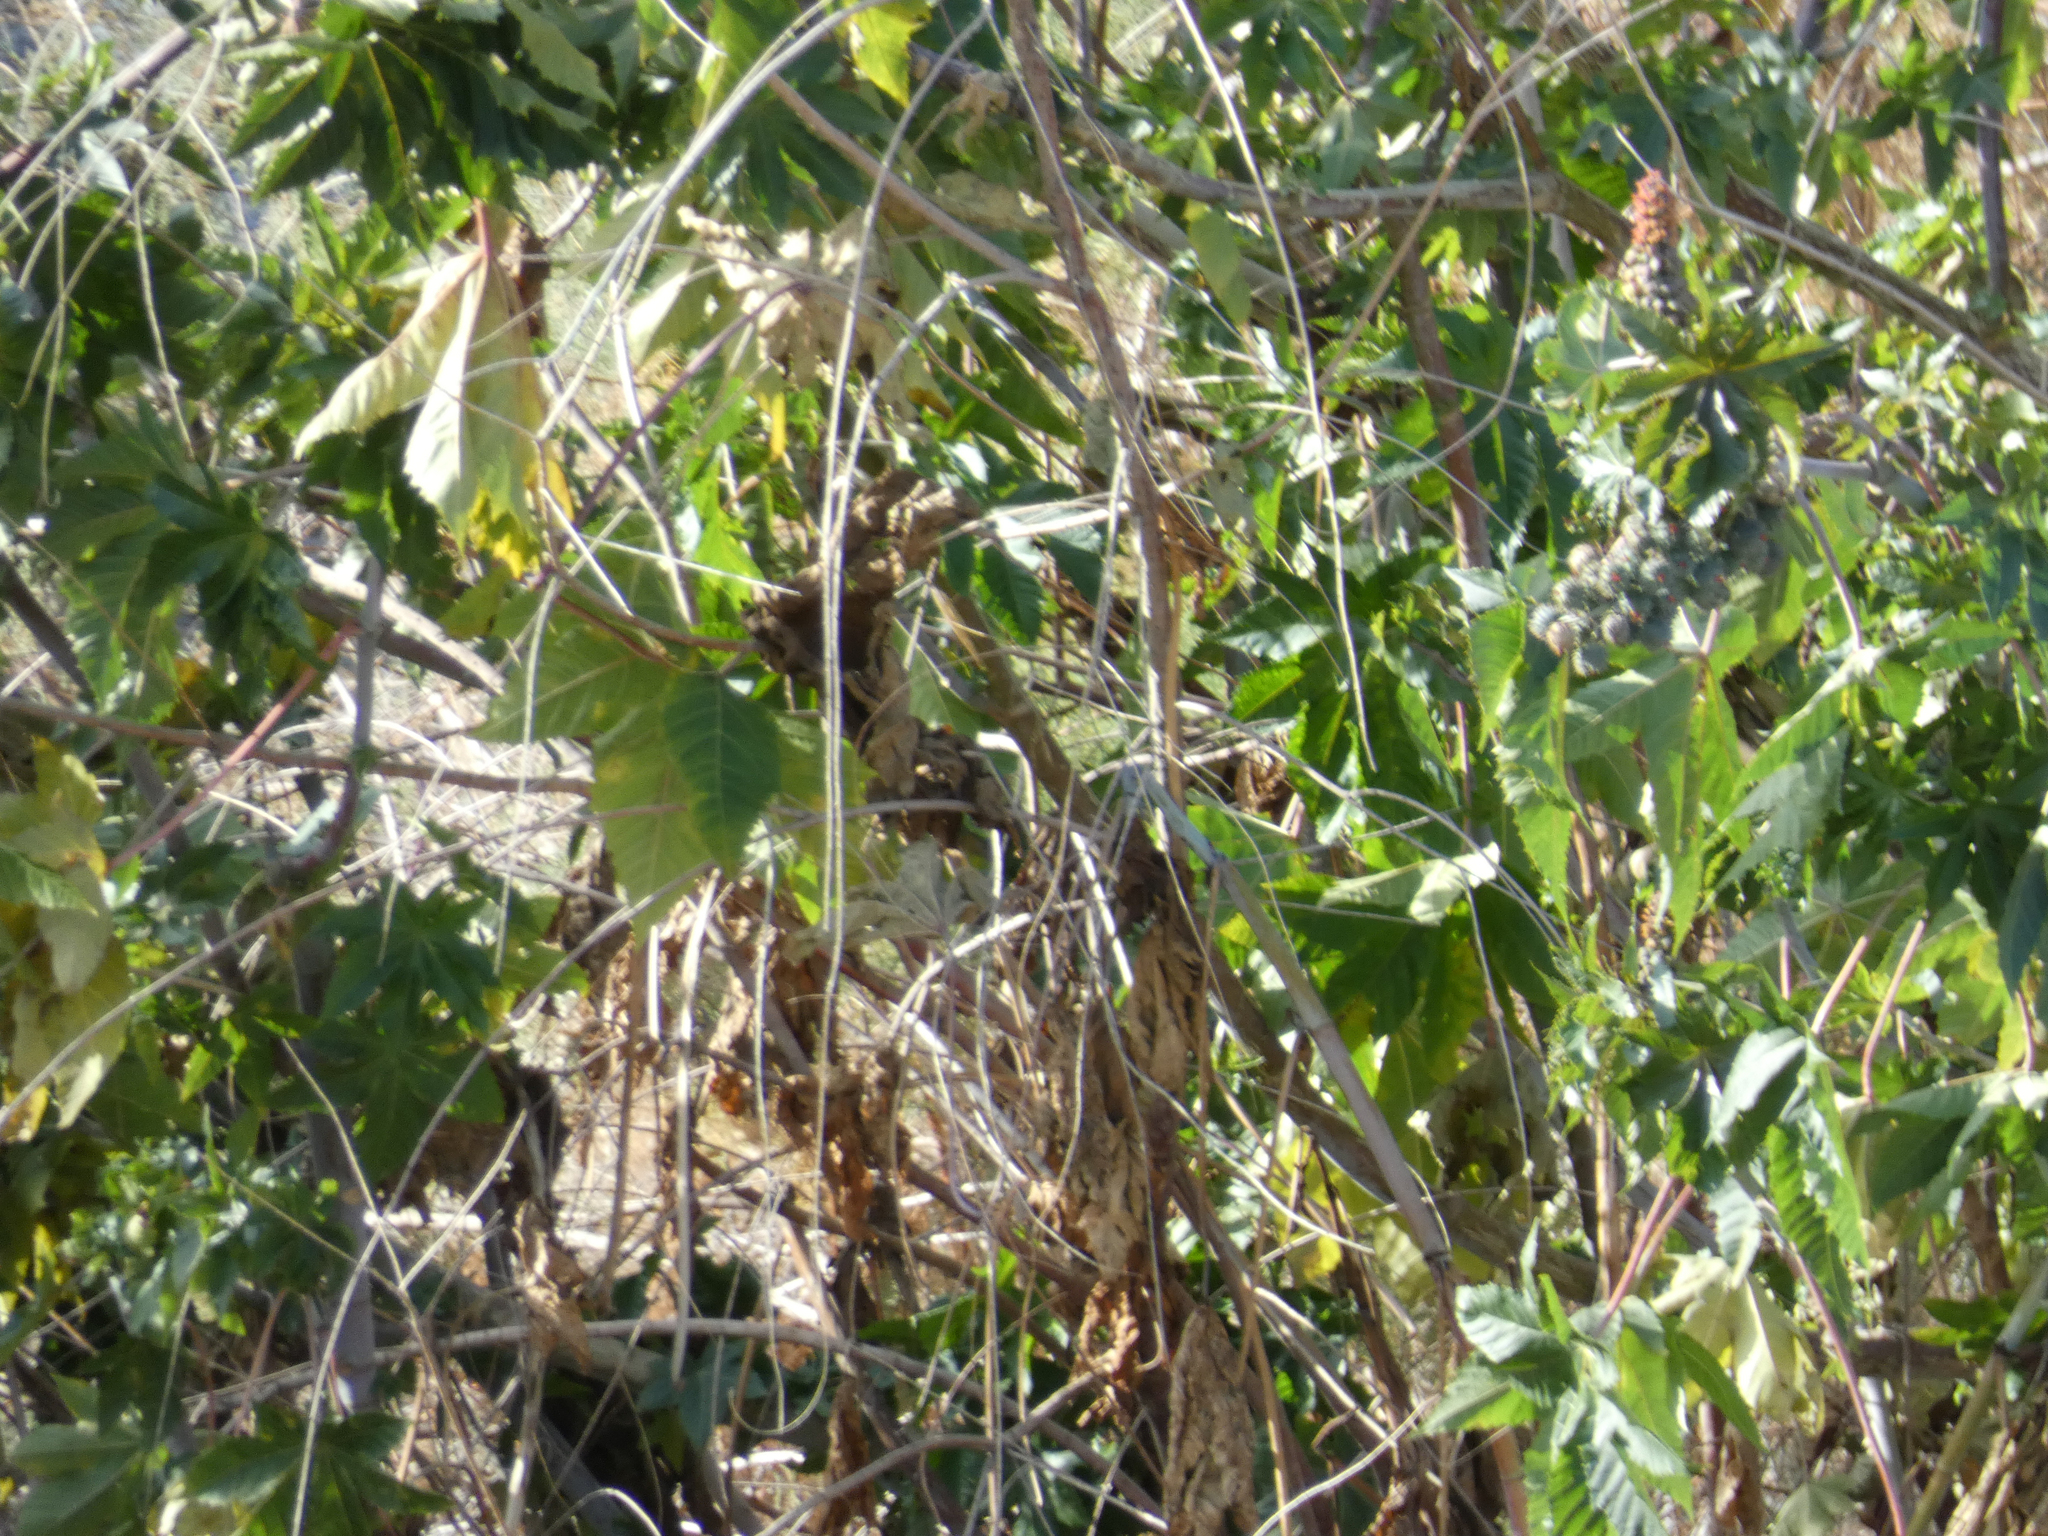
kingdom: Plantae
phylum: Tracheophyta
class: Magnoliopsida
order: Malpighiales
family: Euphorbiaceae
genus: Ricinus
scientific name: Ricinus communis
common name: Castor-oil-plant
